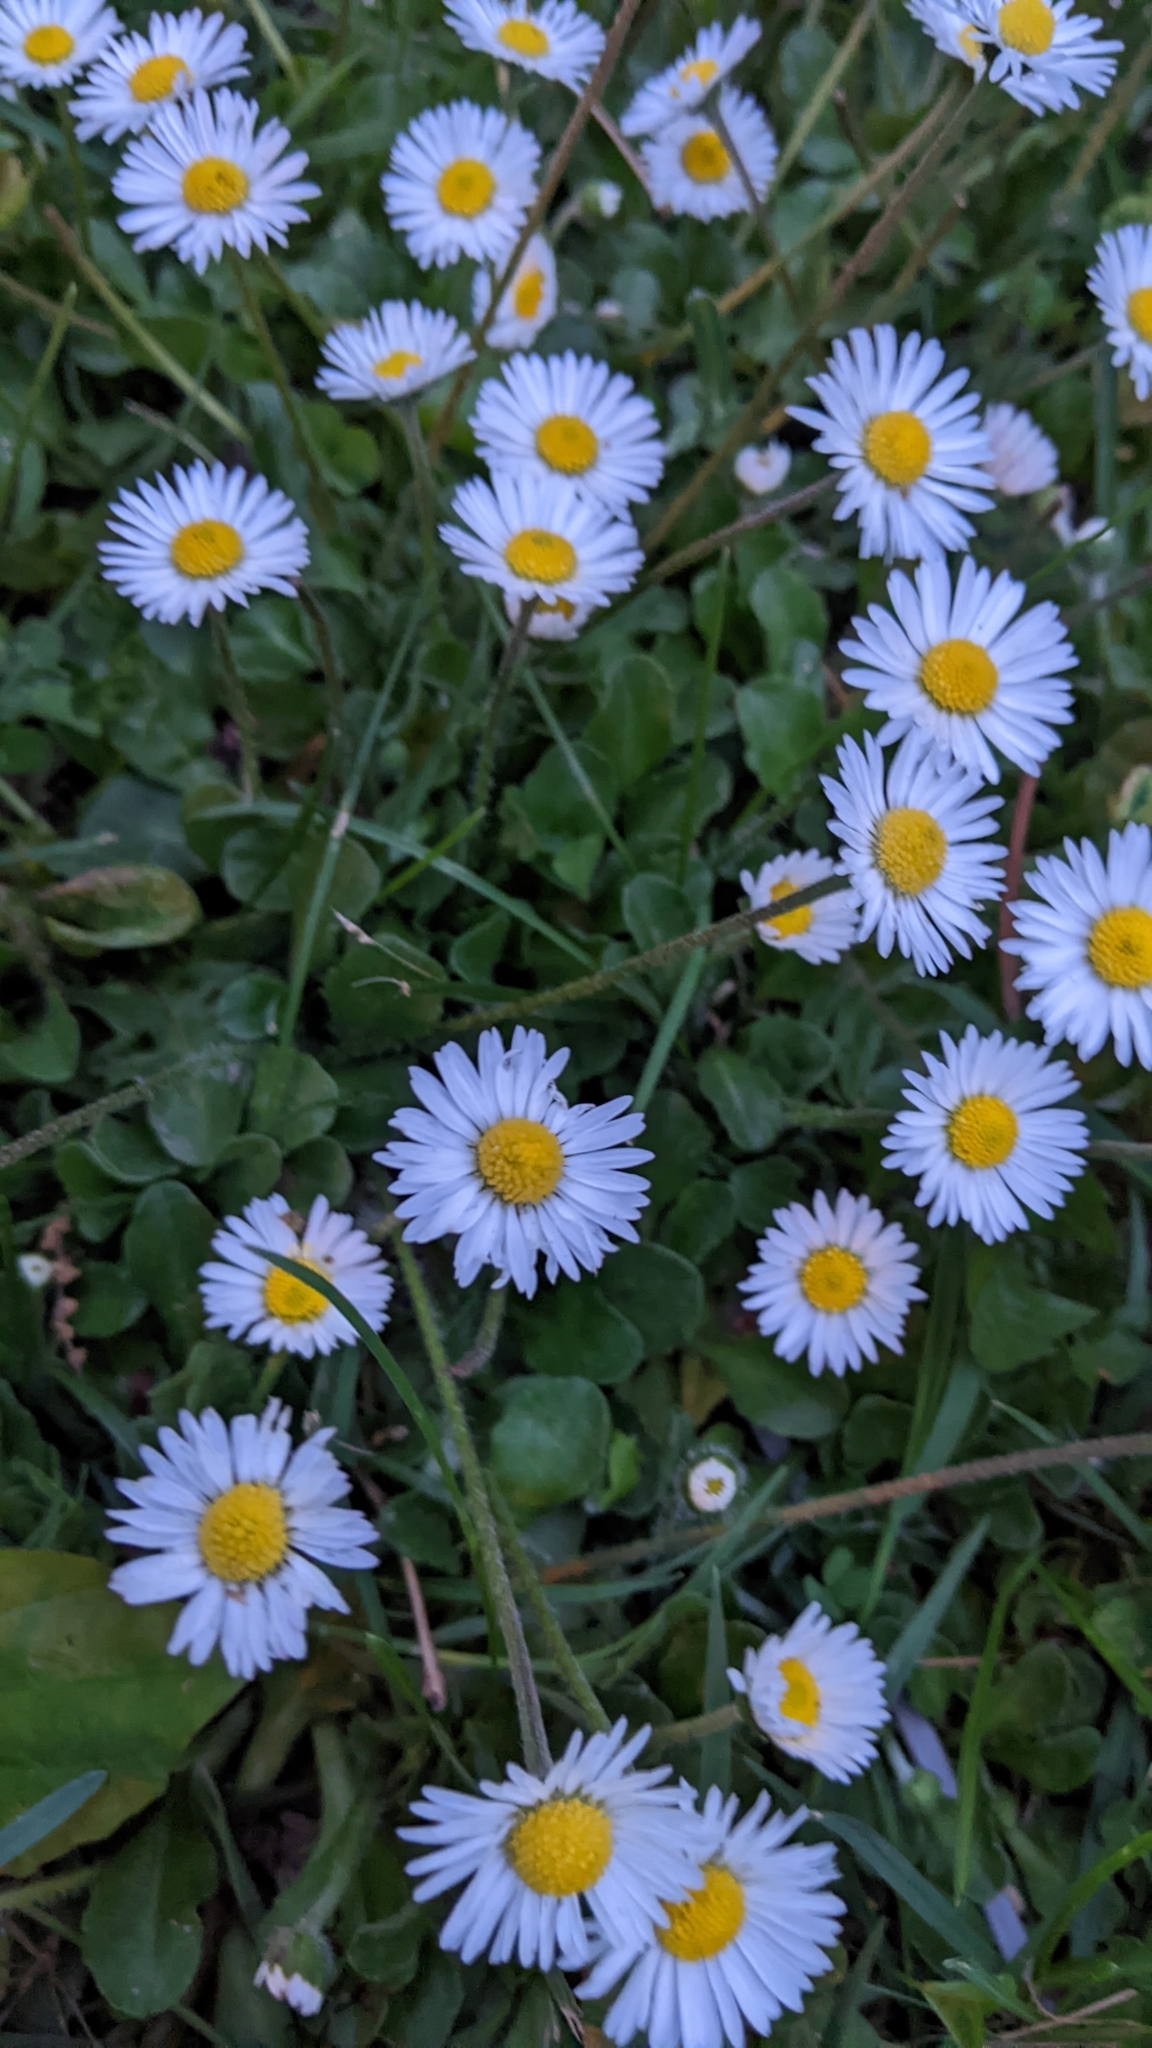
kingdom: Plantae
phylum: Tracheophyta
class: Magnoliopsida
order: Asterales
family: Asteraceae
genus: Bellis
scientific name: Bellis perennis
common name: Lawndaisy
